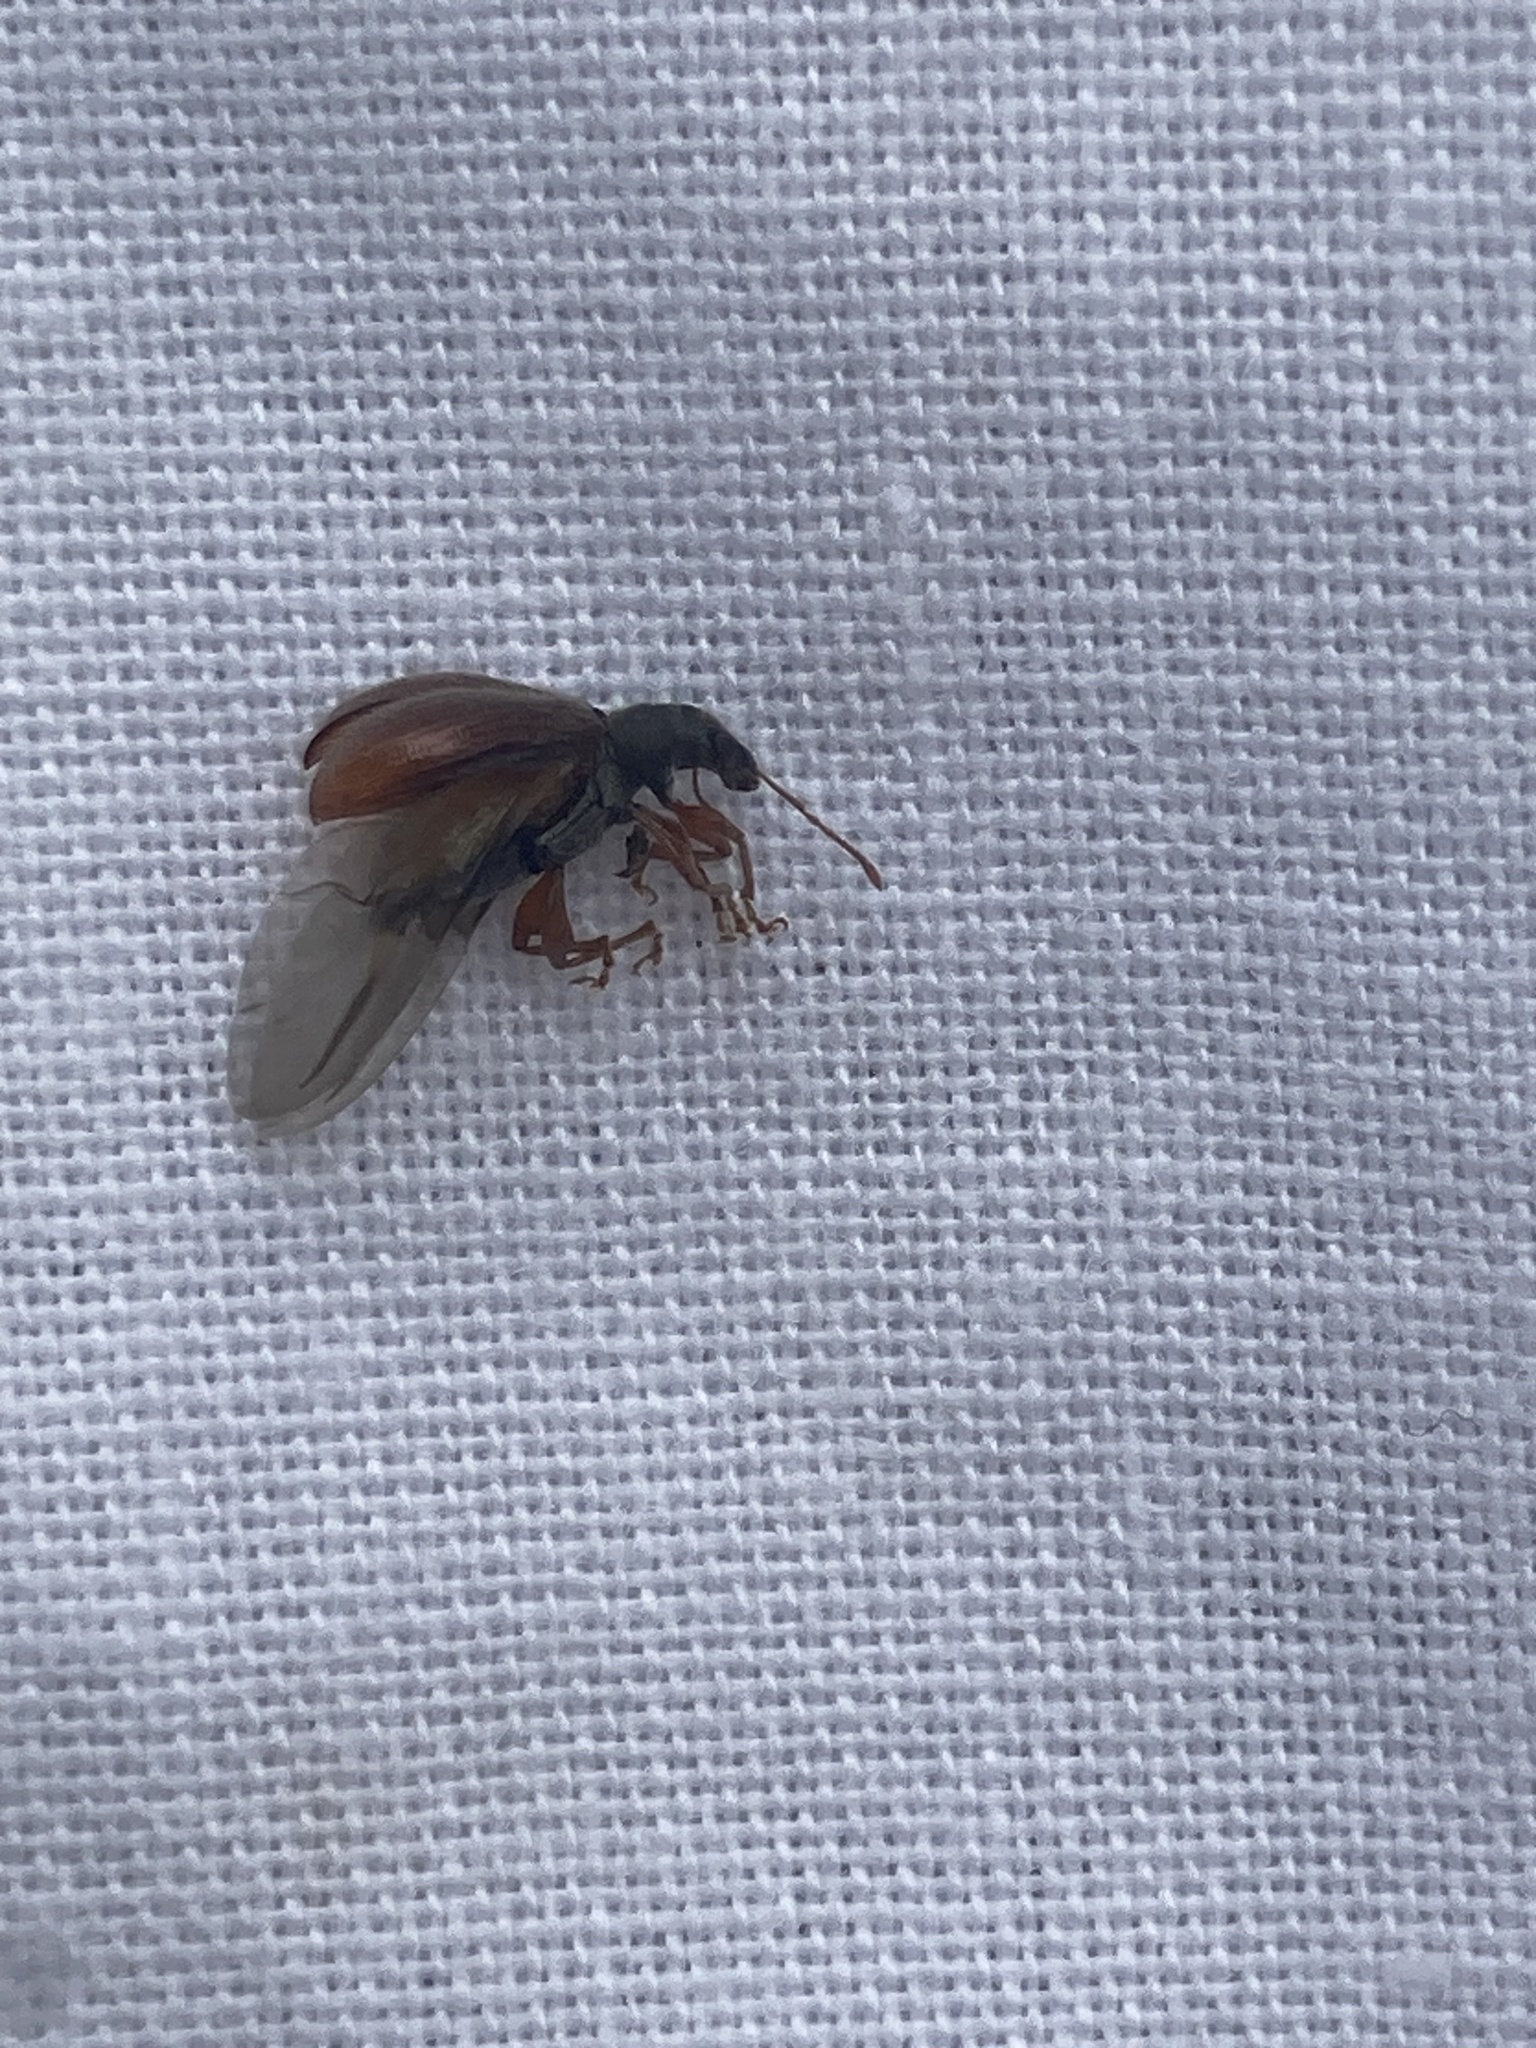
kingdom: Animalia
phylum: Arthropoda
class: Insecta
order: Coleoptera
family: Curculionidae
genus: Phyllobius
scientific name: Phyllobius oblongus
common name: Brown leaf weevil
